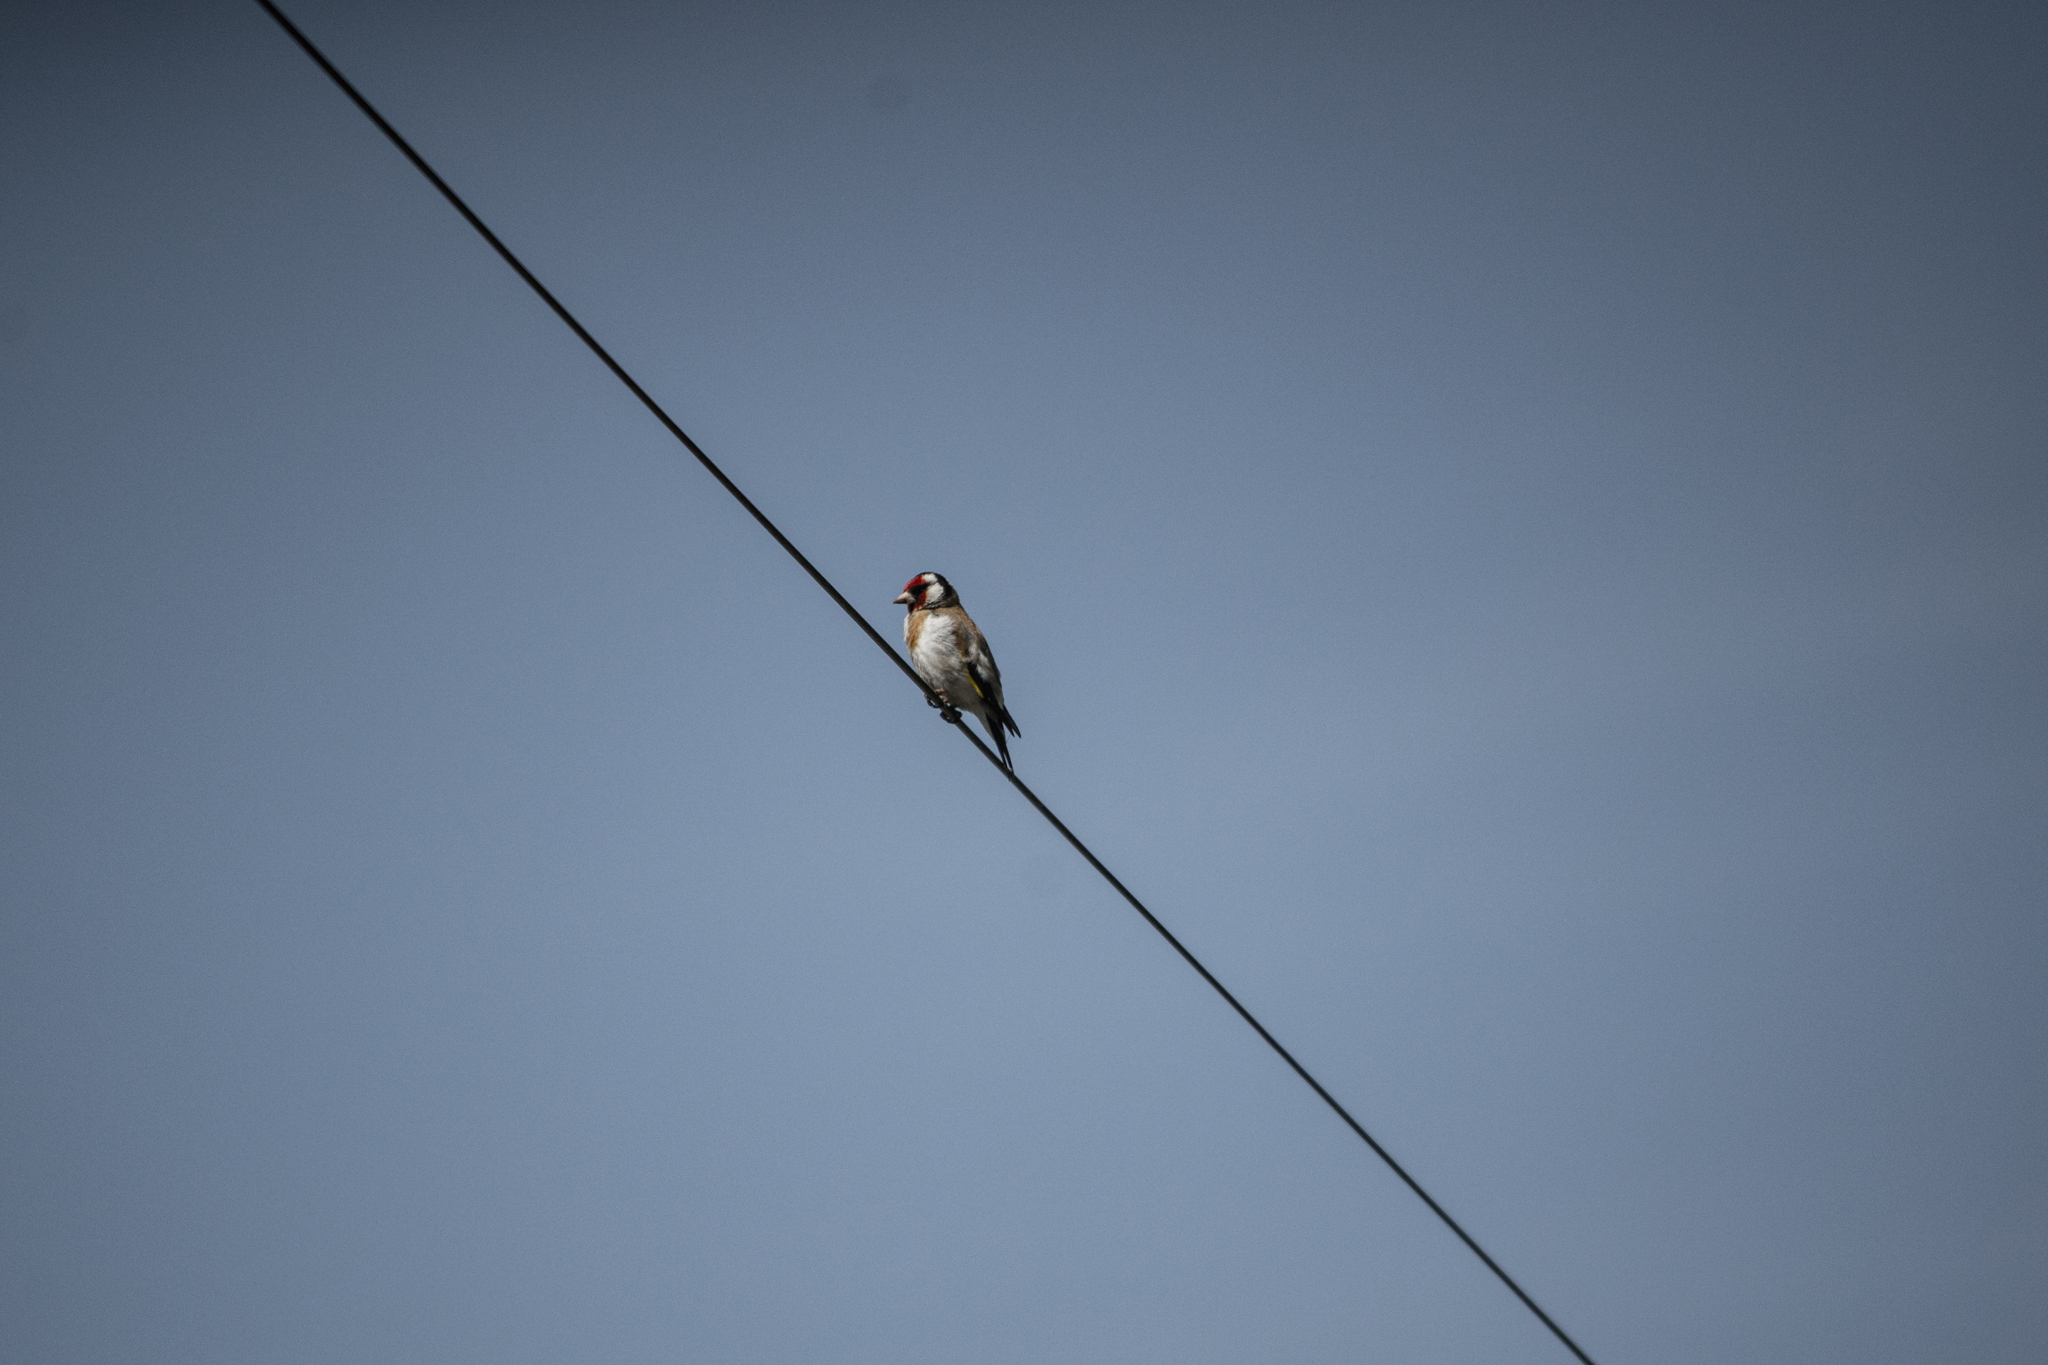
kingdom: Animalia
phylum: Chordata
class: Aves
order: Passeriformes
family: Fringillidae
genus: Carduelis
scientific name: Carduelis carduelis
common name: European goldfinch
